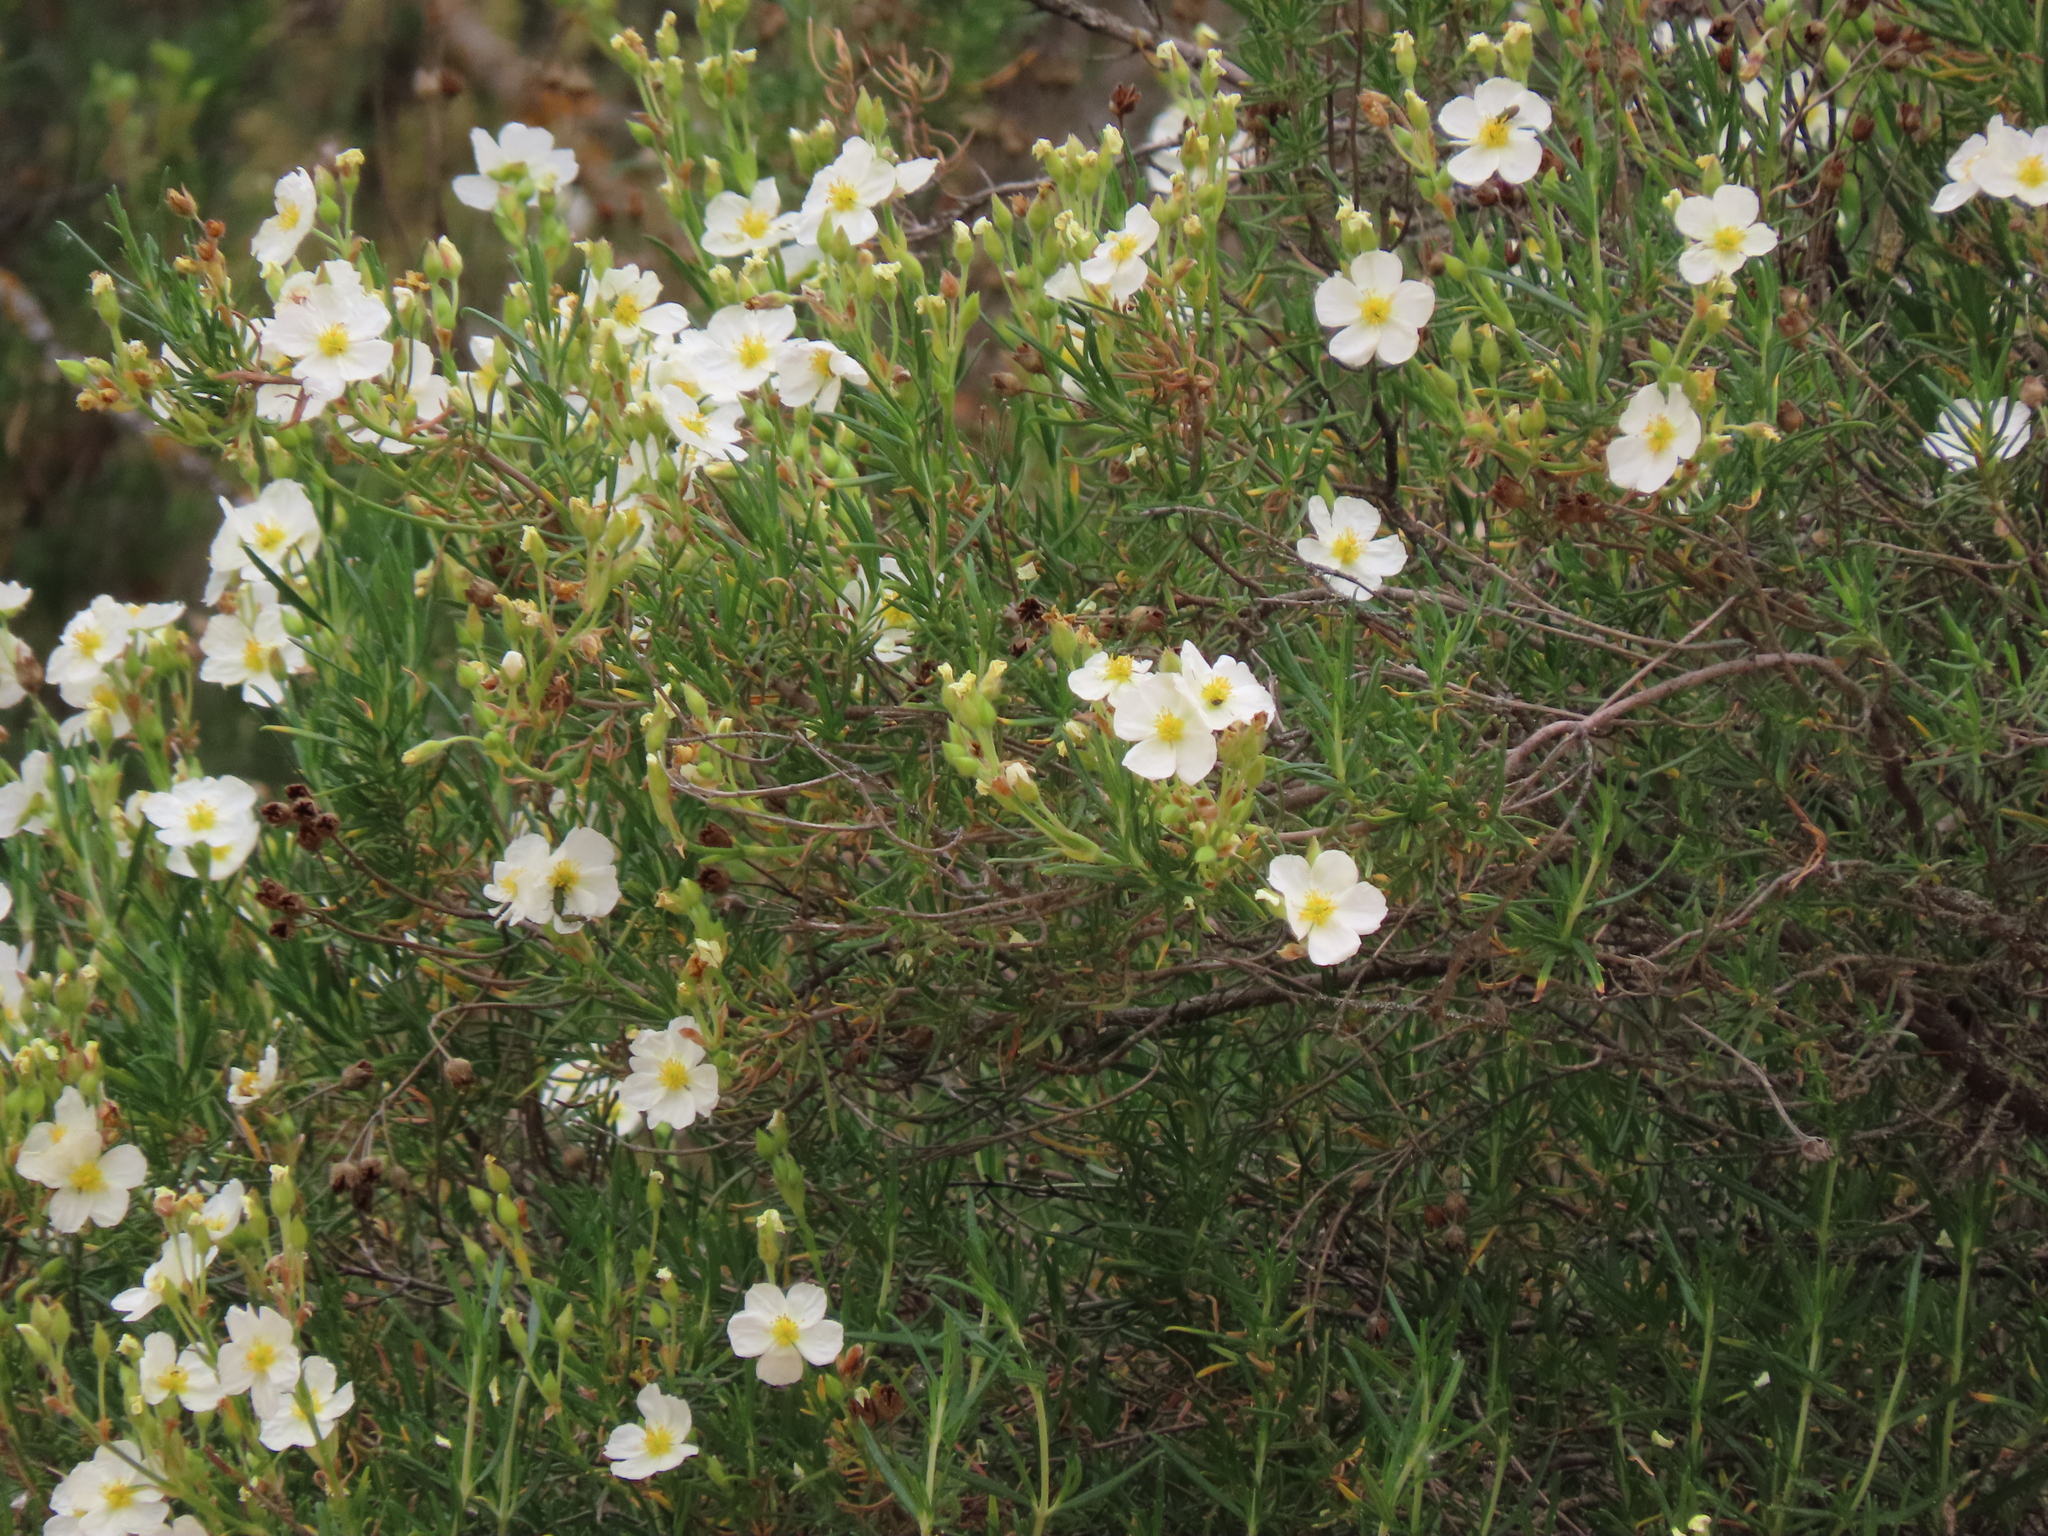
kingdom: Plantae
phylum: Tracheophyta
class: Magnoliopsida
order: Malvales
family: Cistaceae
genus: Cistus
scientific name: Cistus clusii
